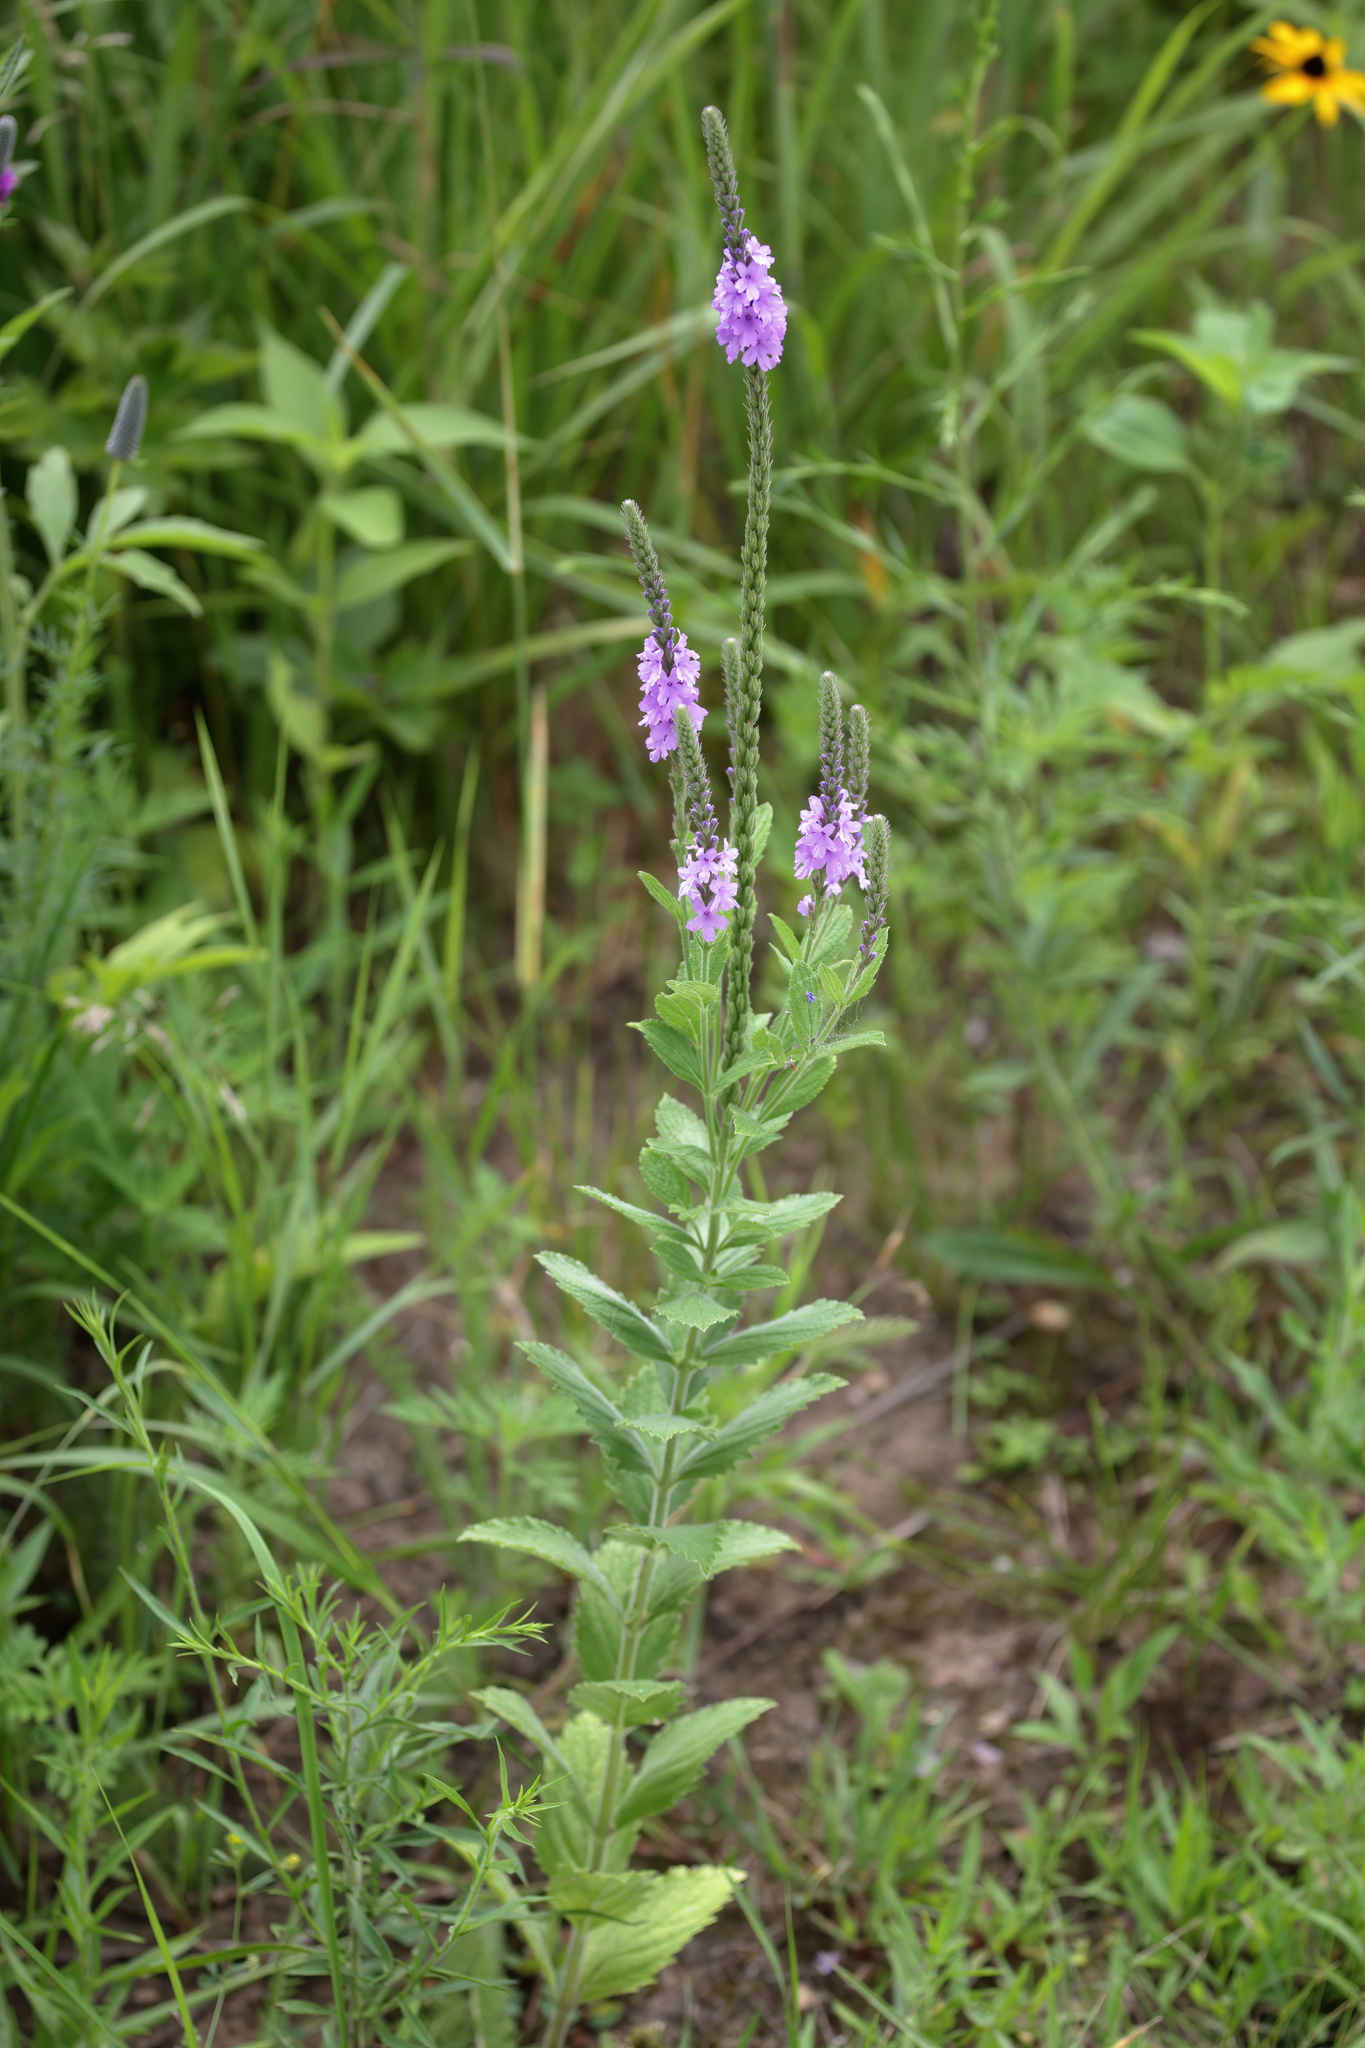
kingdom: Plantae
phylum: Tracheophyta
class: Magnoliopsida
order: Lamiales
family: Verbenaceae
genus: Verbena
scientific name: Verbena stricta
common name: Hoary vervain
